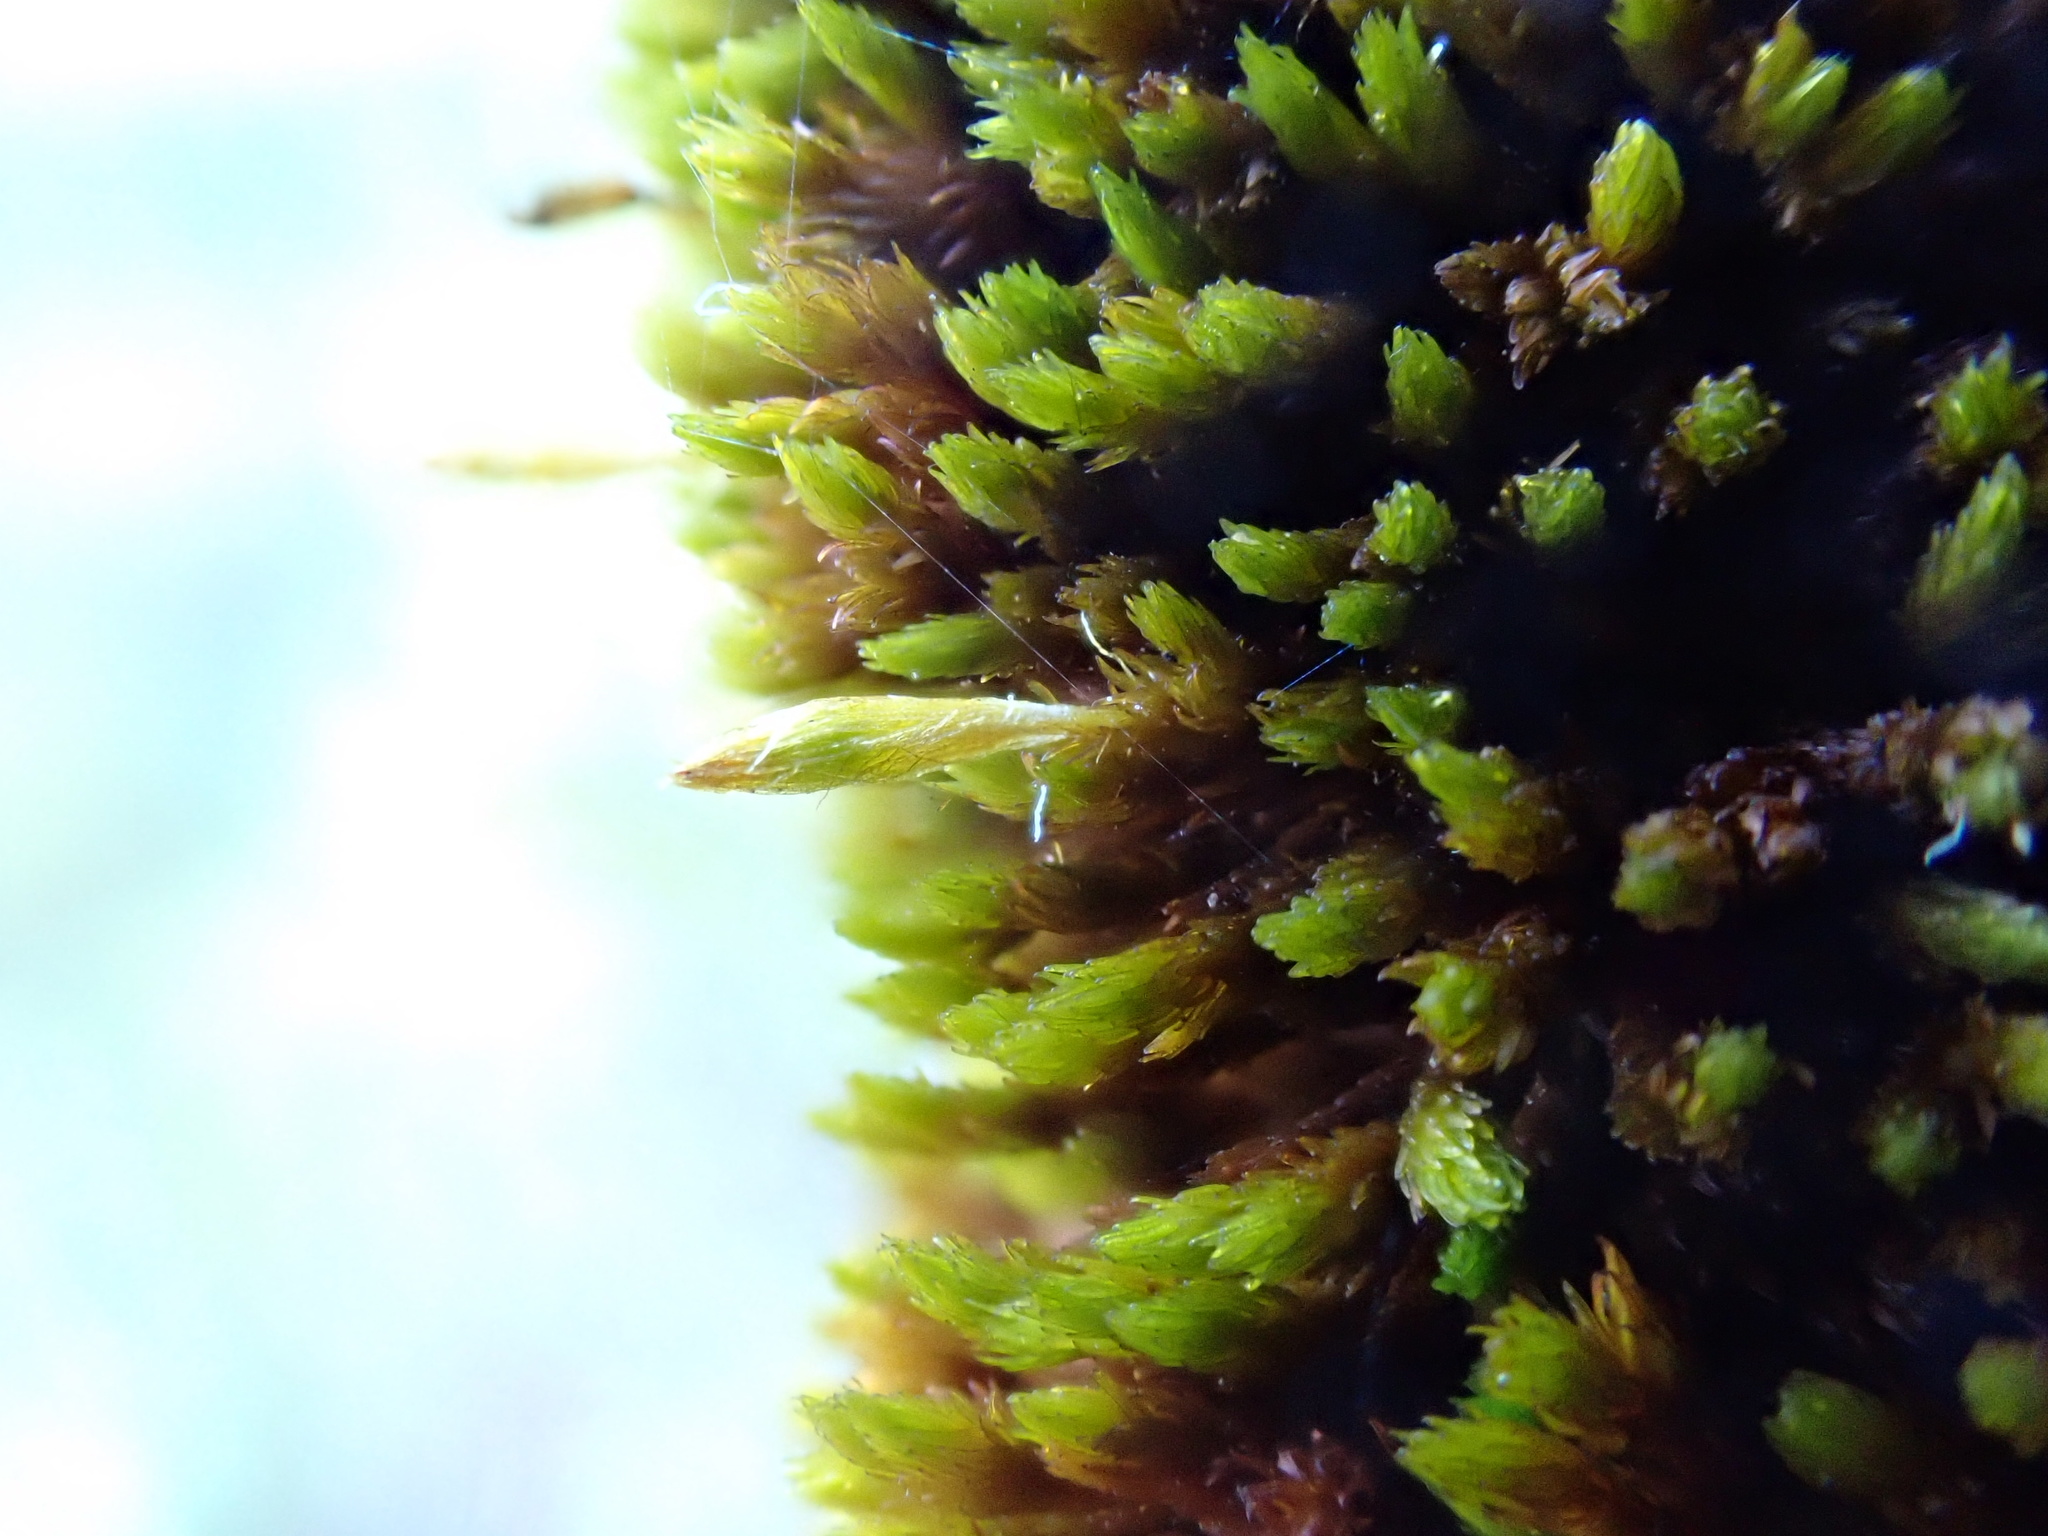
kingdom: Plantae
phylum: Bryophyta
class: Bryopsida
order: Orthotrichales
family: Orthotrichaceae
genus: Macrocoma
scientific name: Macrocoma tenuis
